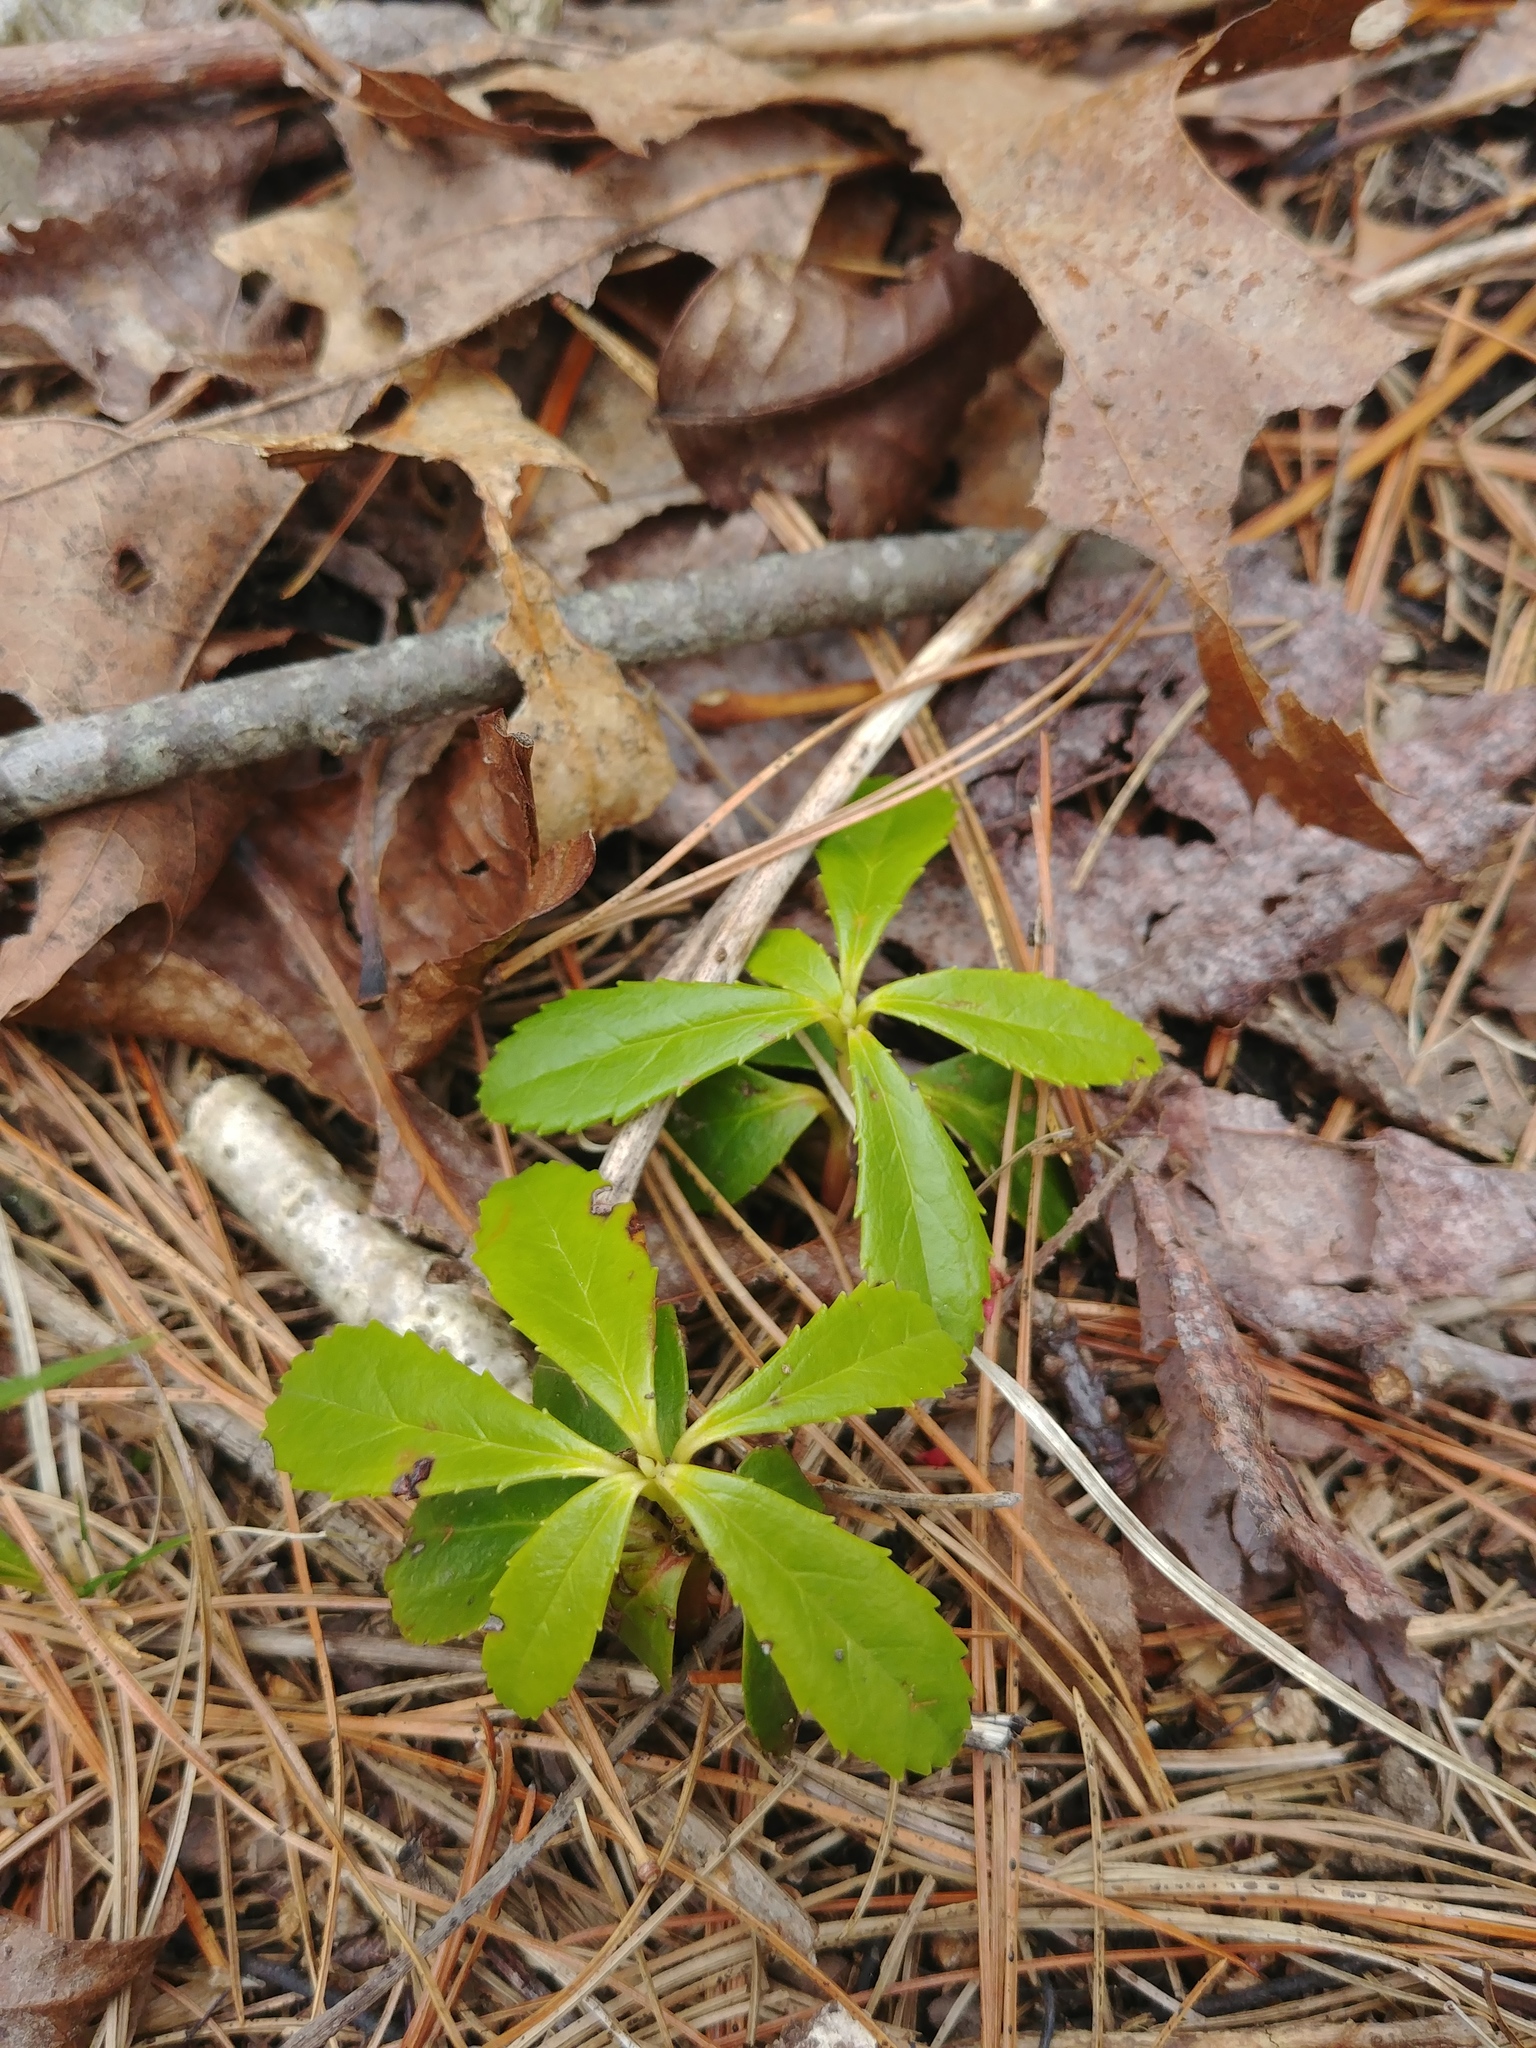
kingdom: Plantae
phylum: Tracheophyta
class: Magnoliopsida
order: Ericales
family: Ericaceae
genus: Chimaphila
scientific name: Chimaphila umbellata
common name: Pipsissewa
